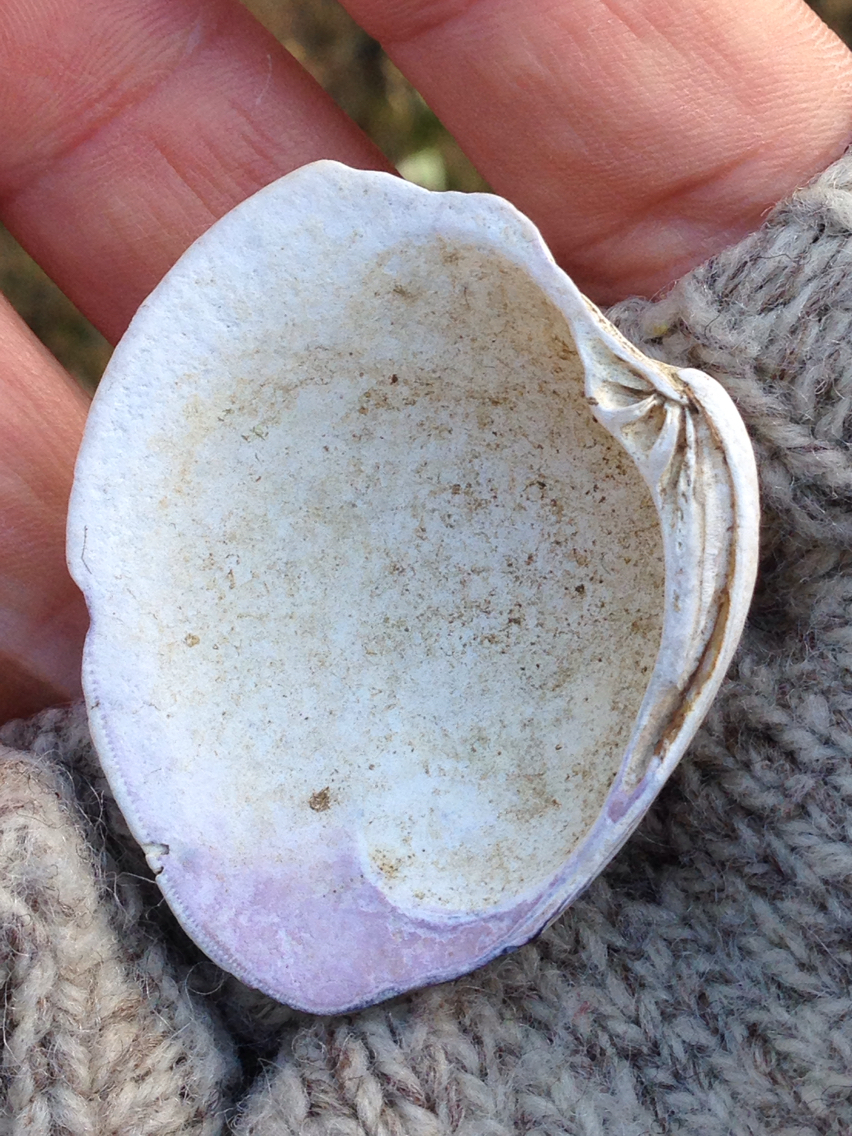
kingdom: Animalia
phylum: Mollusca
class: Bivalvia
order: Venerida
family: Veneridae
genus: Mercenaria
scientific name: Mercenaria mercenaria
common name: American hard-shelled clam
